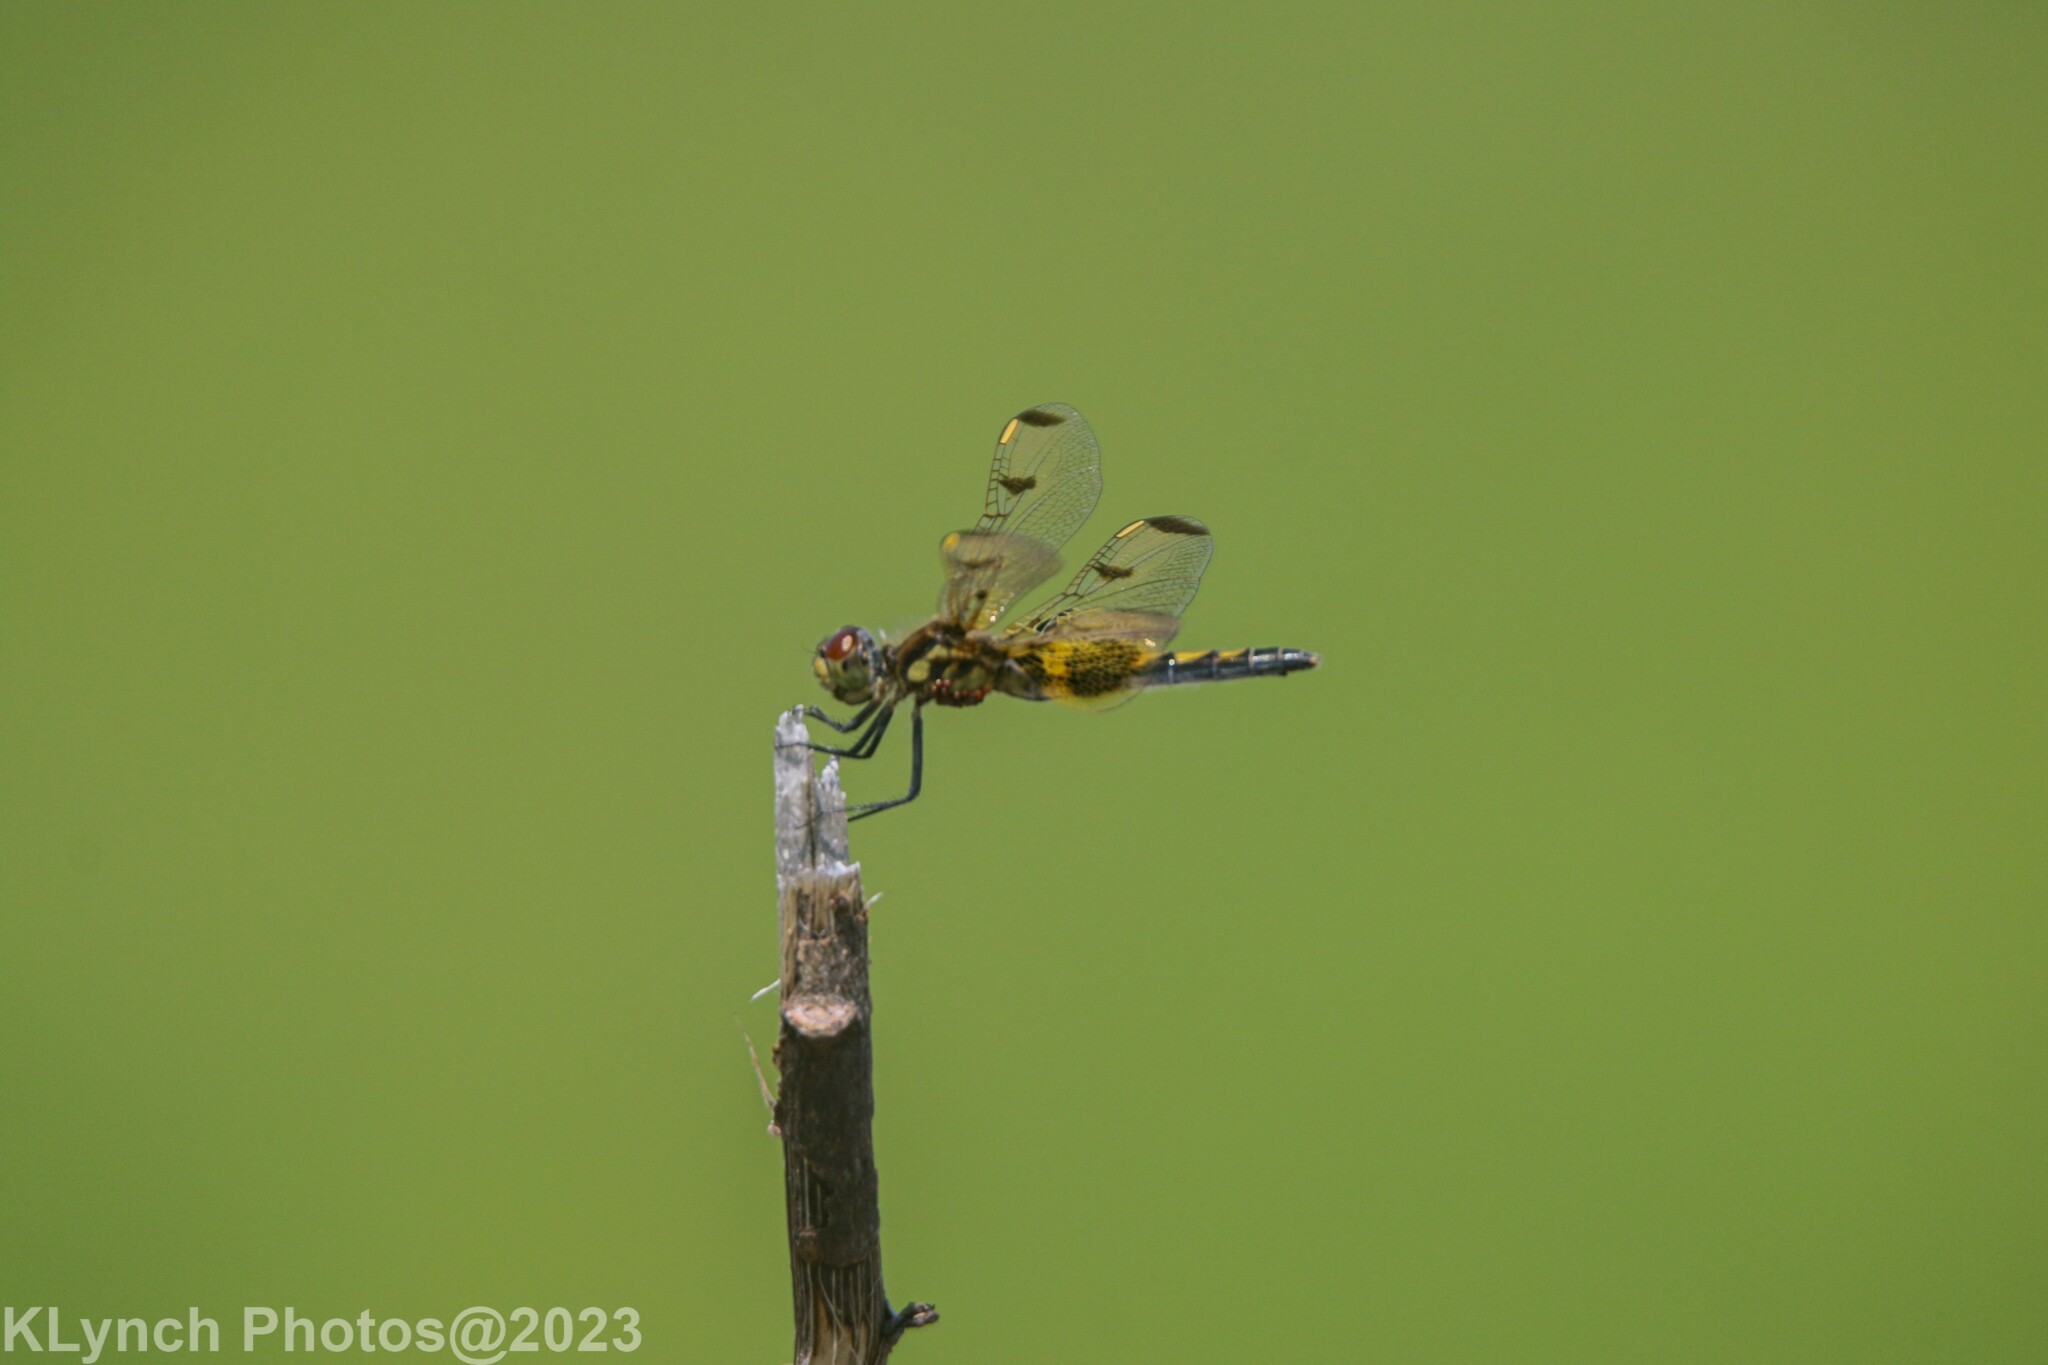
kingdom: Animalia
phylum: Arthropoda
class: Insecta
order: Odonata
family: Libellulidae
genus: Celithemis
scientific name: Celithemis elisa
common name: Calico pennant
